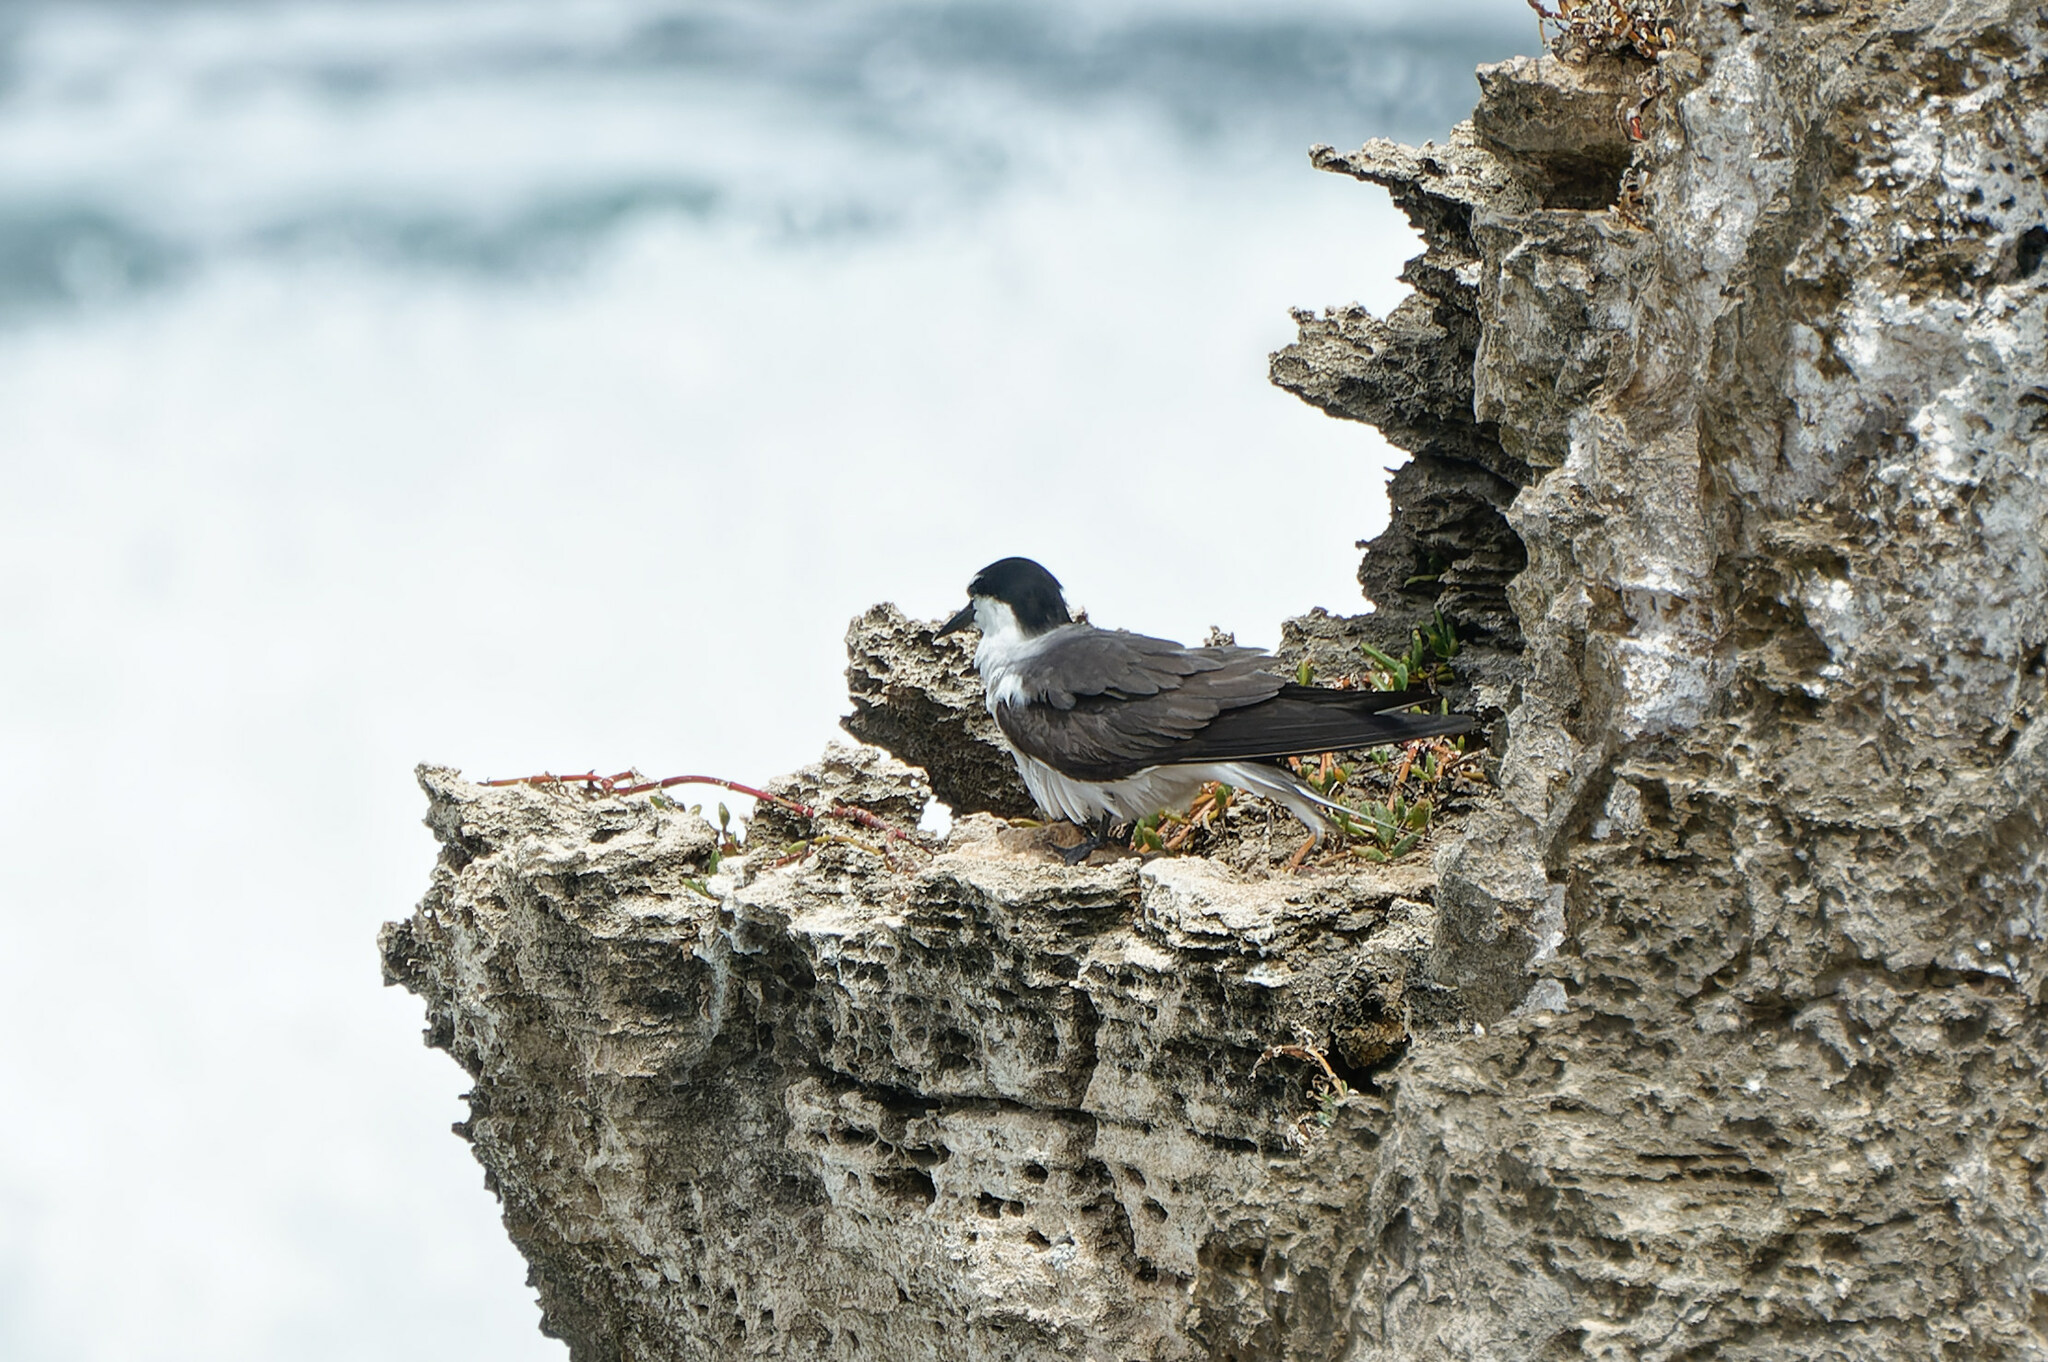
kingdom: Animalia
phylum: Chordata
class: Aves
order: Charadriiformes
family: Laridae
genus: Onychoprion
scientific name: Onychoprion anaethetus
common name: Bridled tern
